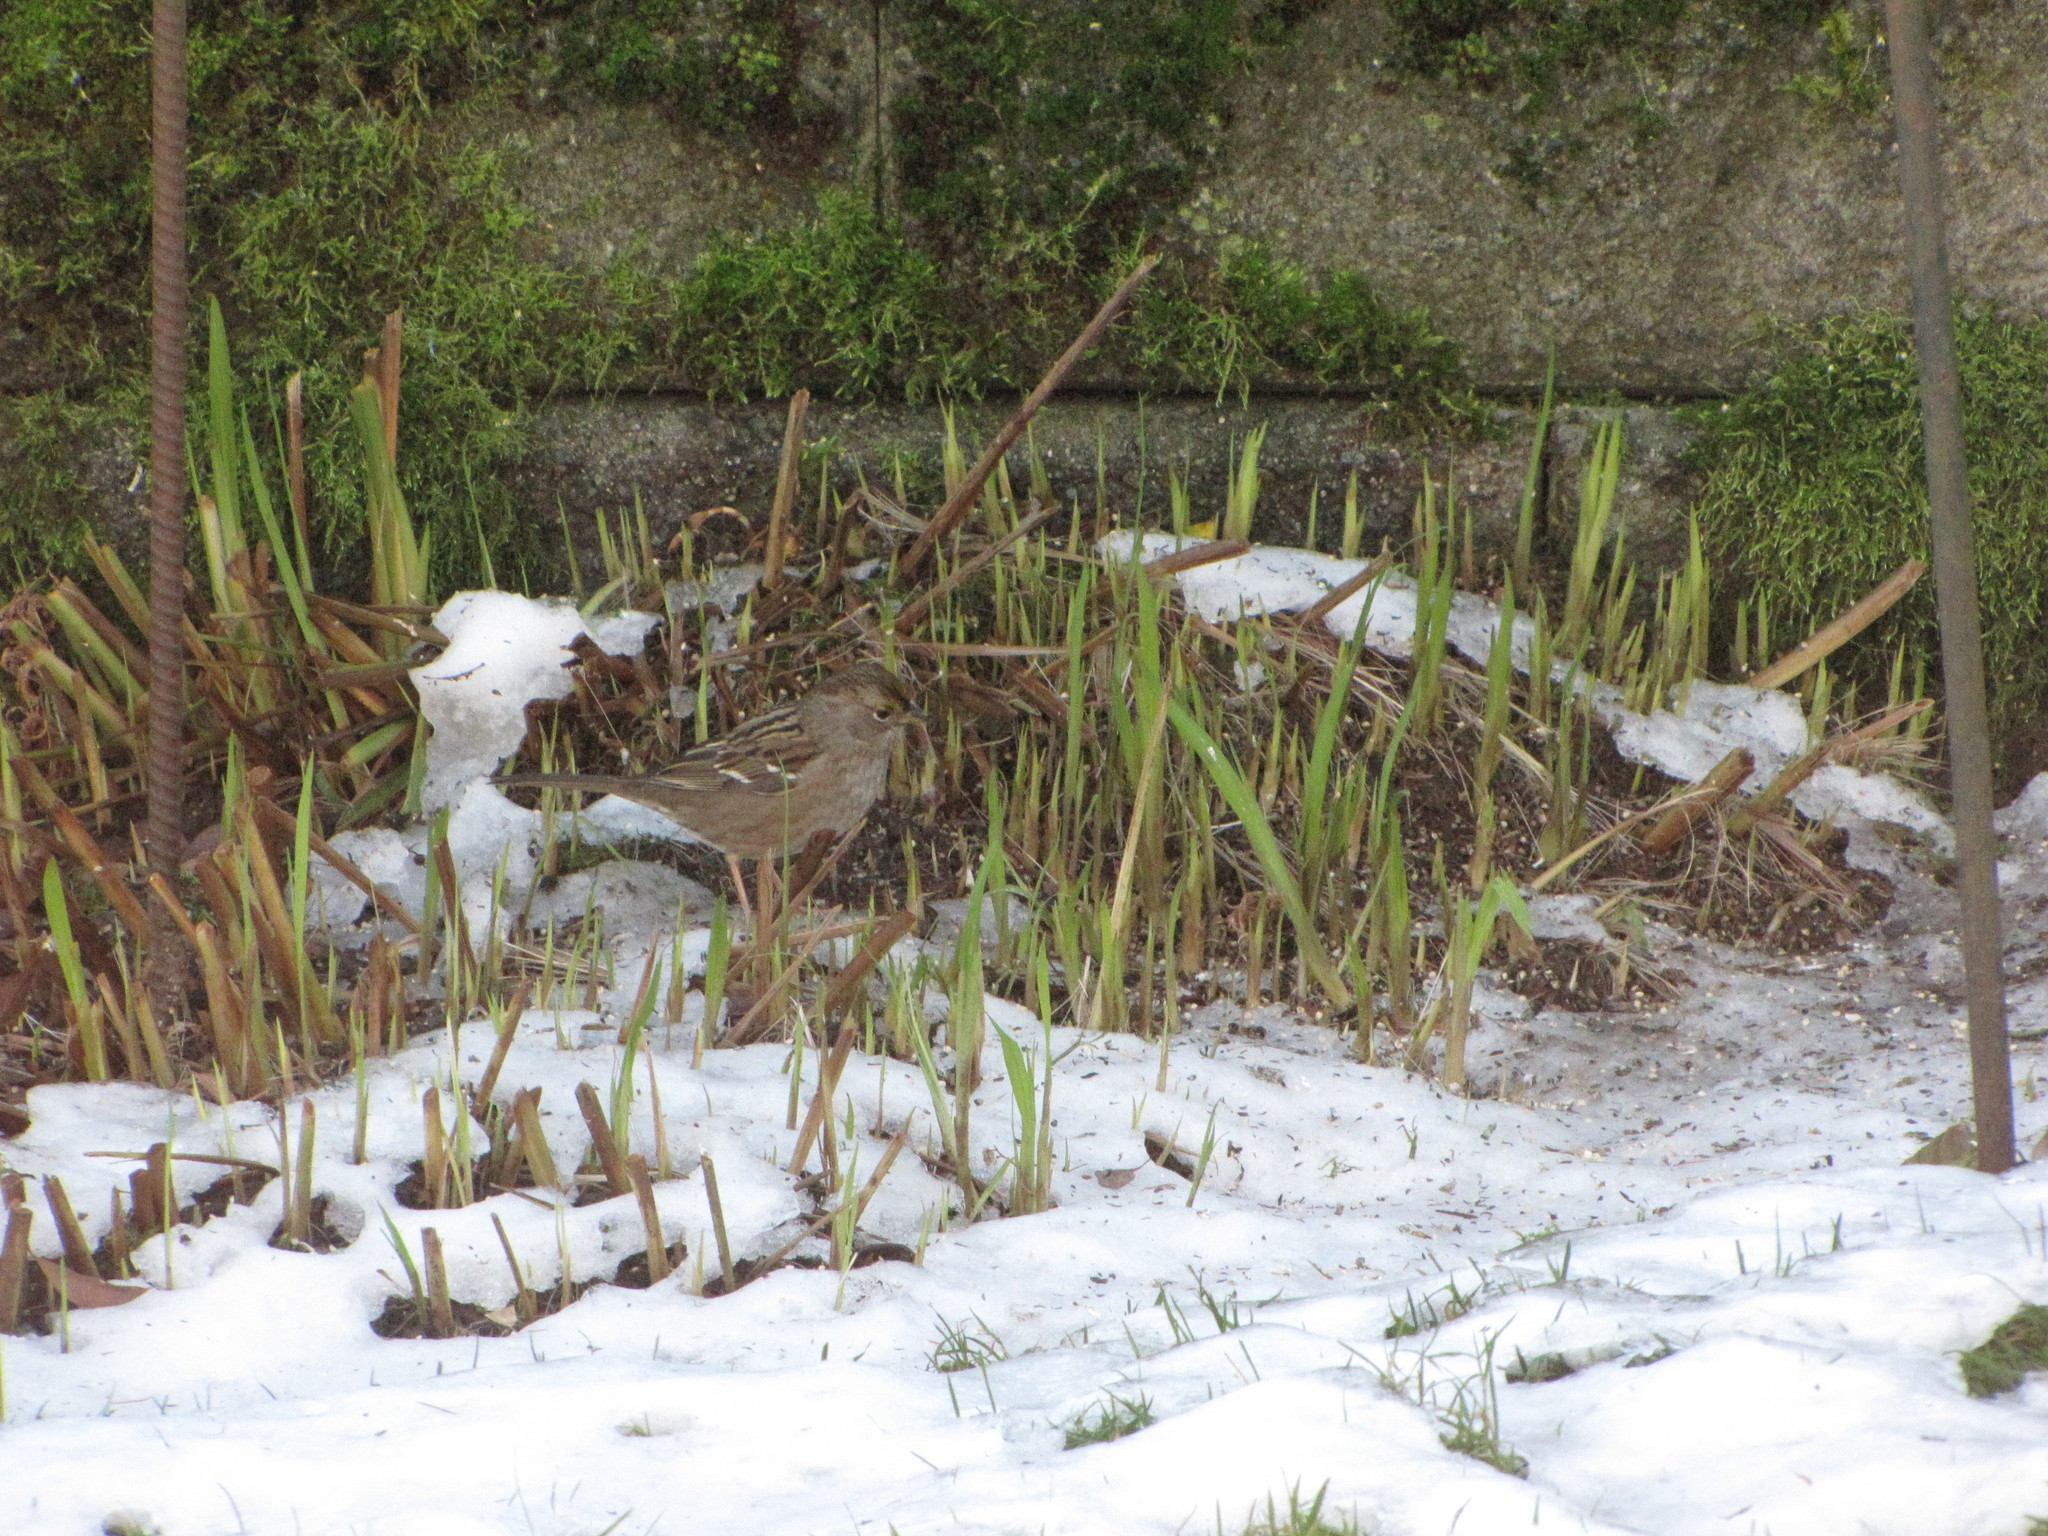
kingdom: Animalia
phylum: Chordata
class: Aves
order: Passeriformes
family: Passerellidae
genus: Zonotrichia
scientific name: Zonotrichia atricapilla
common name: Golden-crowned sparrow
